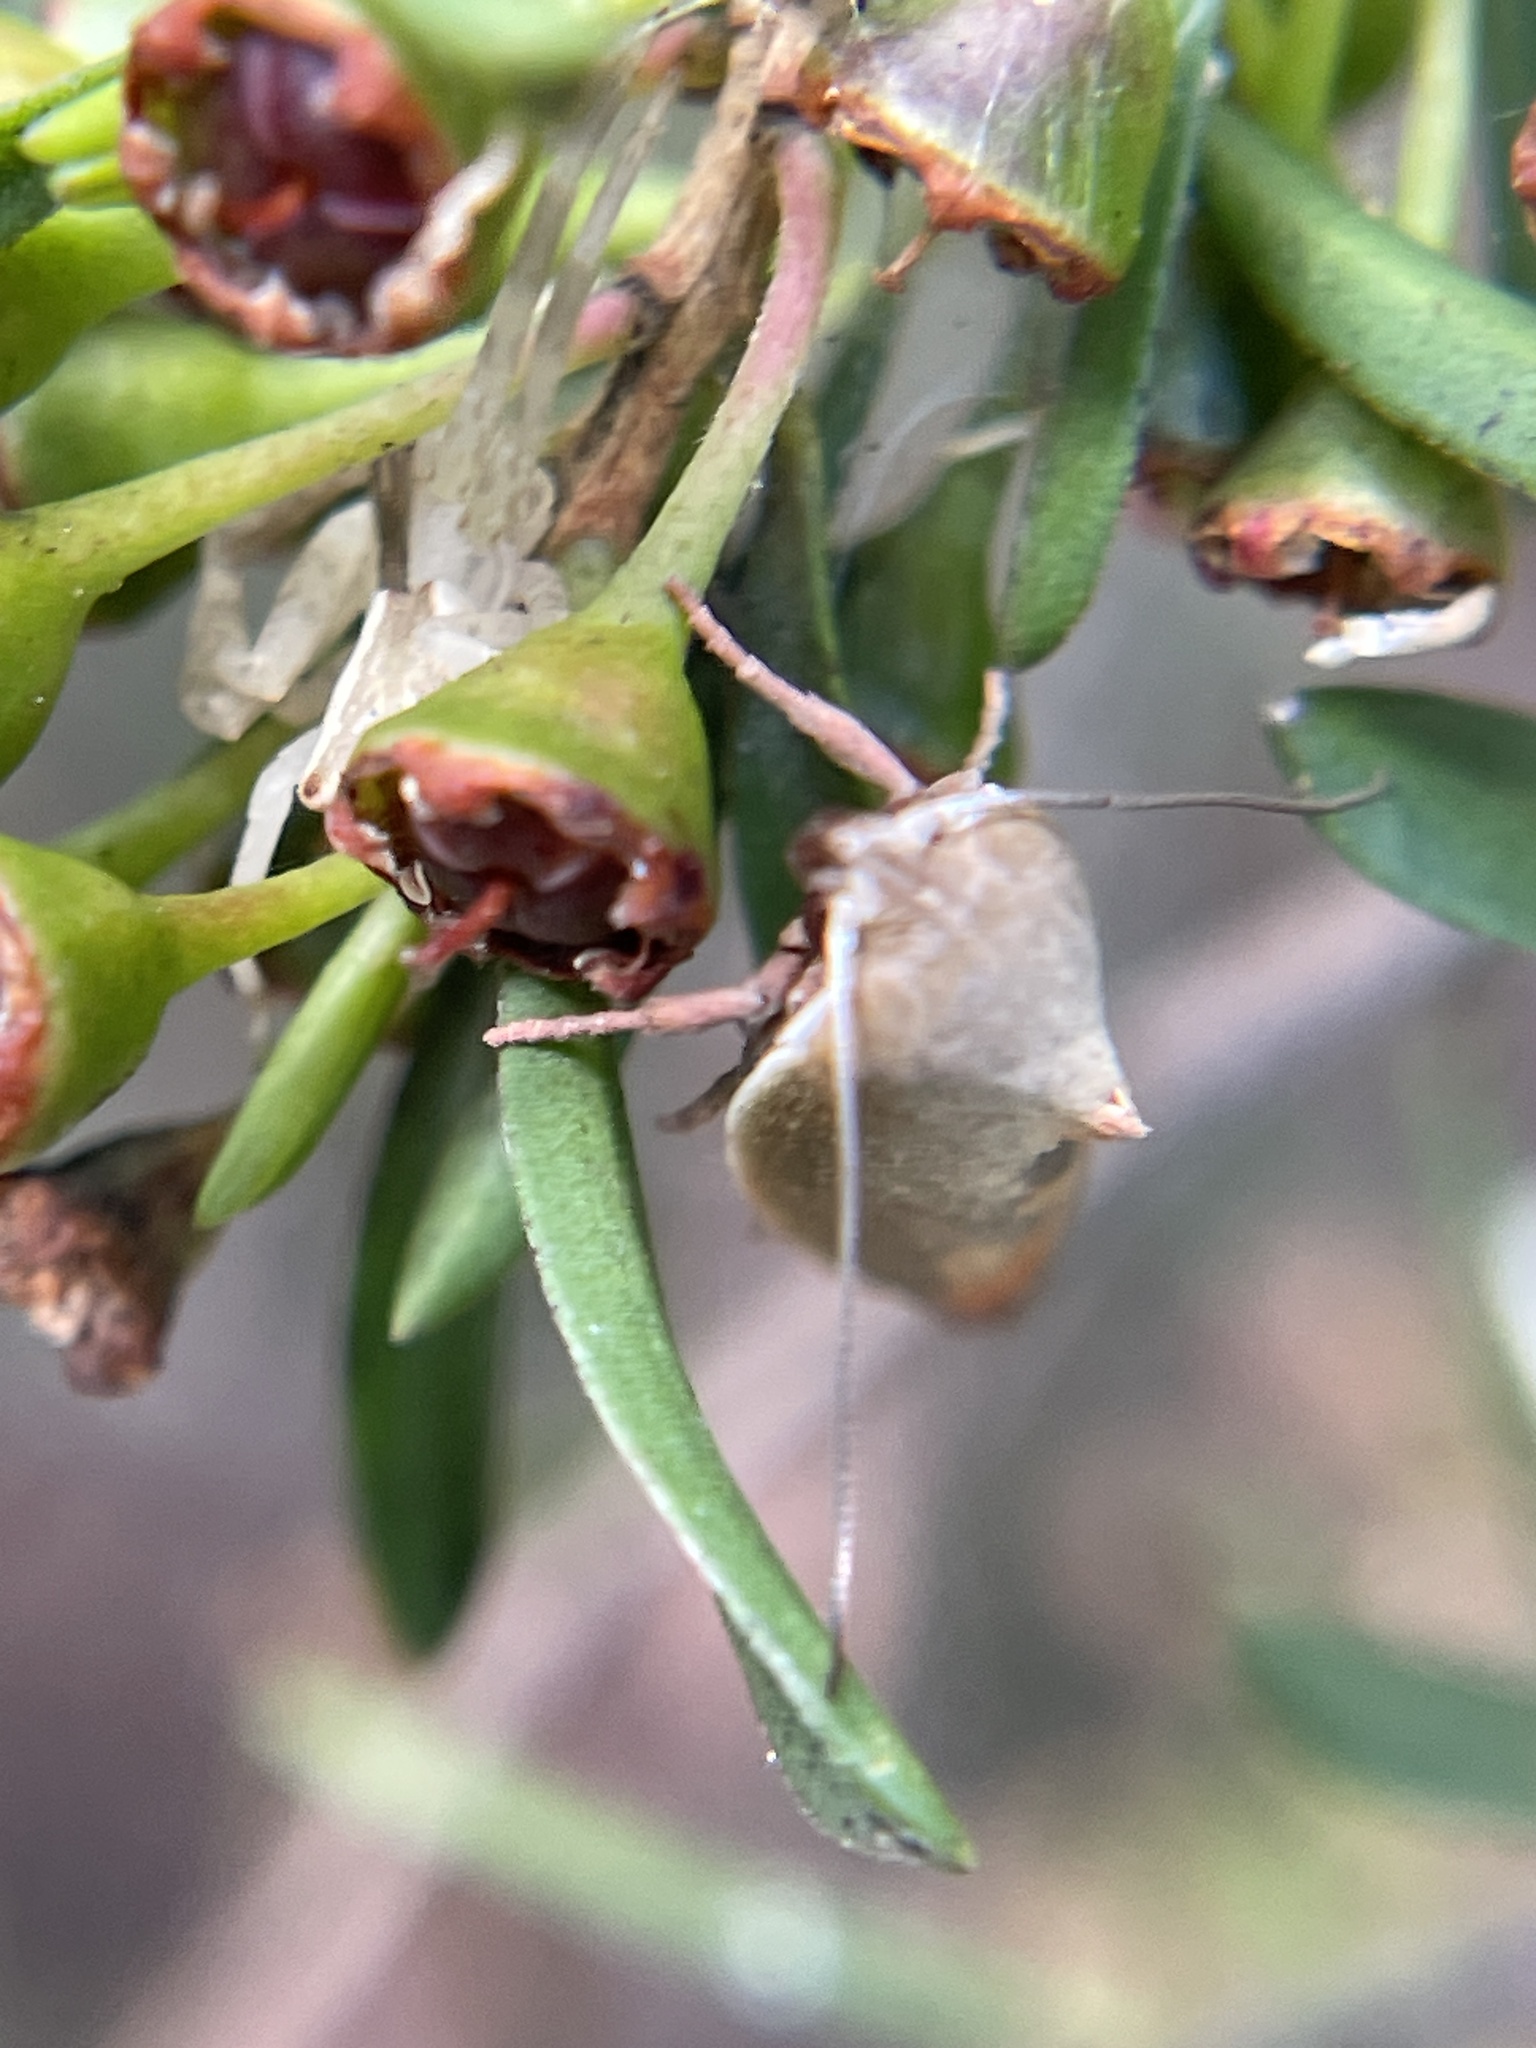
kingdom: Animalia
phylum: Arthropoda
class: Insecta
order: Lepidoptera
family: Oecophoridae
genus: Ptyoptila
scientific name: Ptyoptila matutinella
